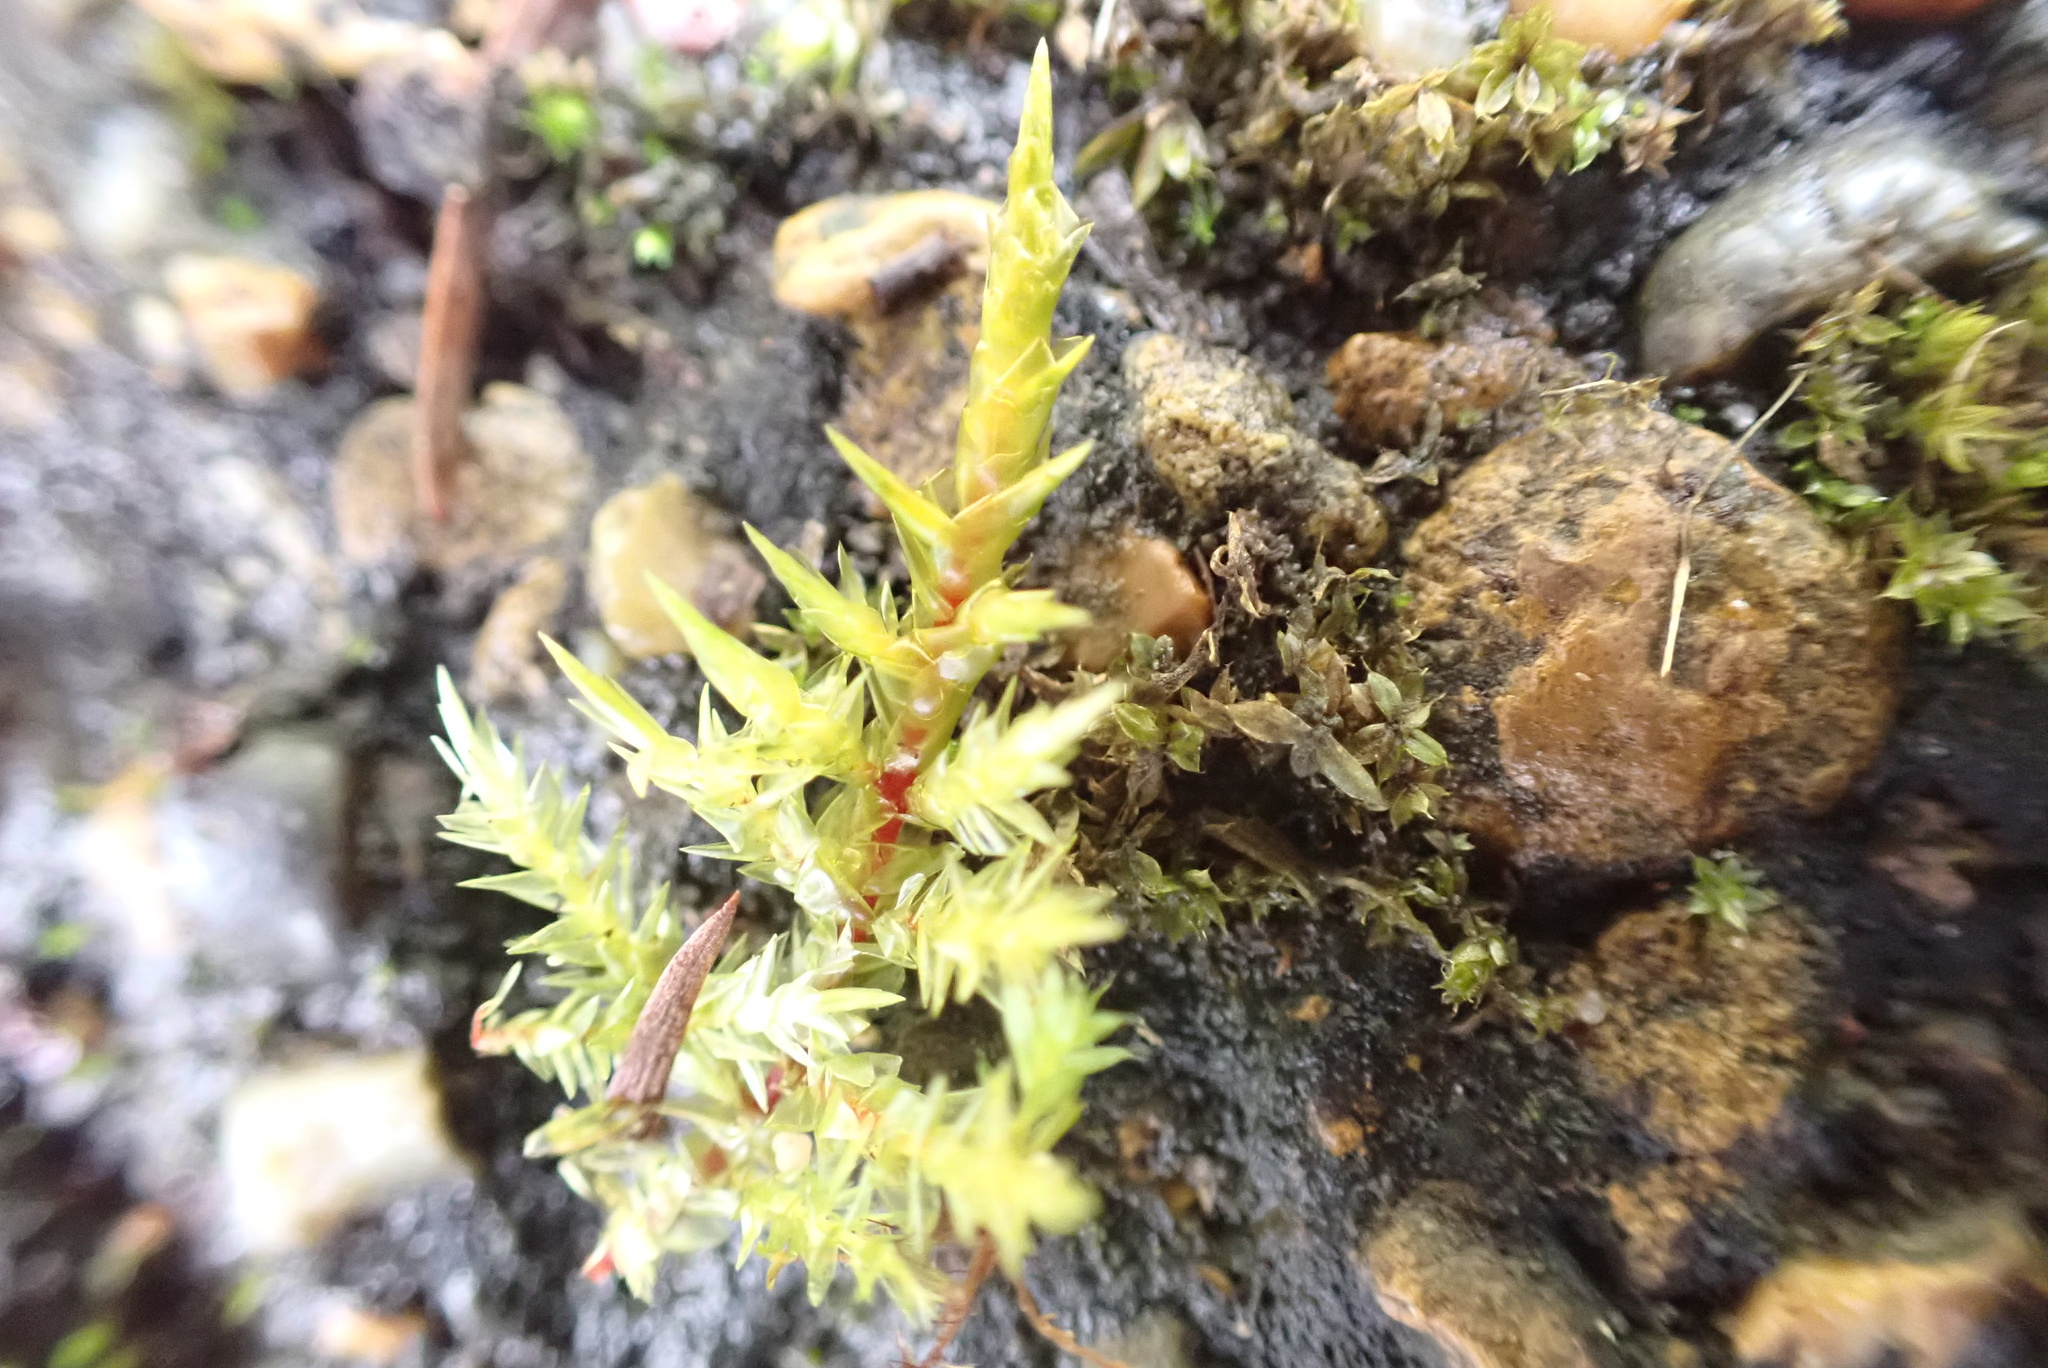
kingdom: Plantae
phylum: Bryophyta
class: Bryopsida
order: Hypnales
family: Pylaisiaceae
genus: Calliergonella
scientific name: Calliergonella cuspidata
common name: Common large wetland moss
